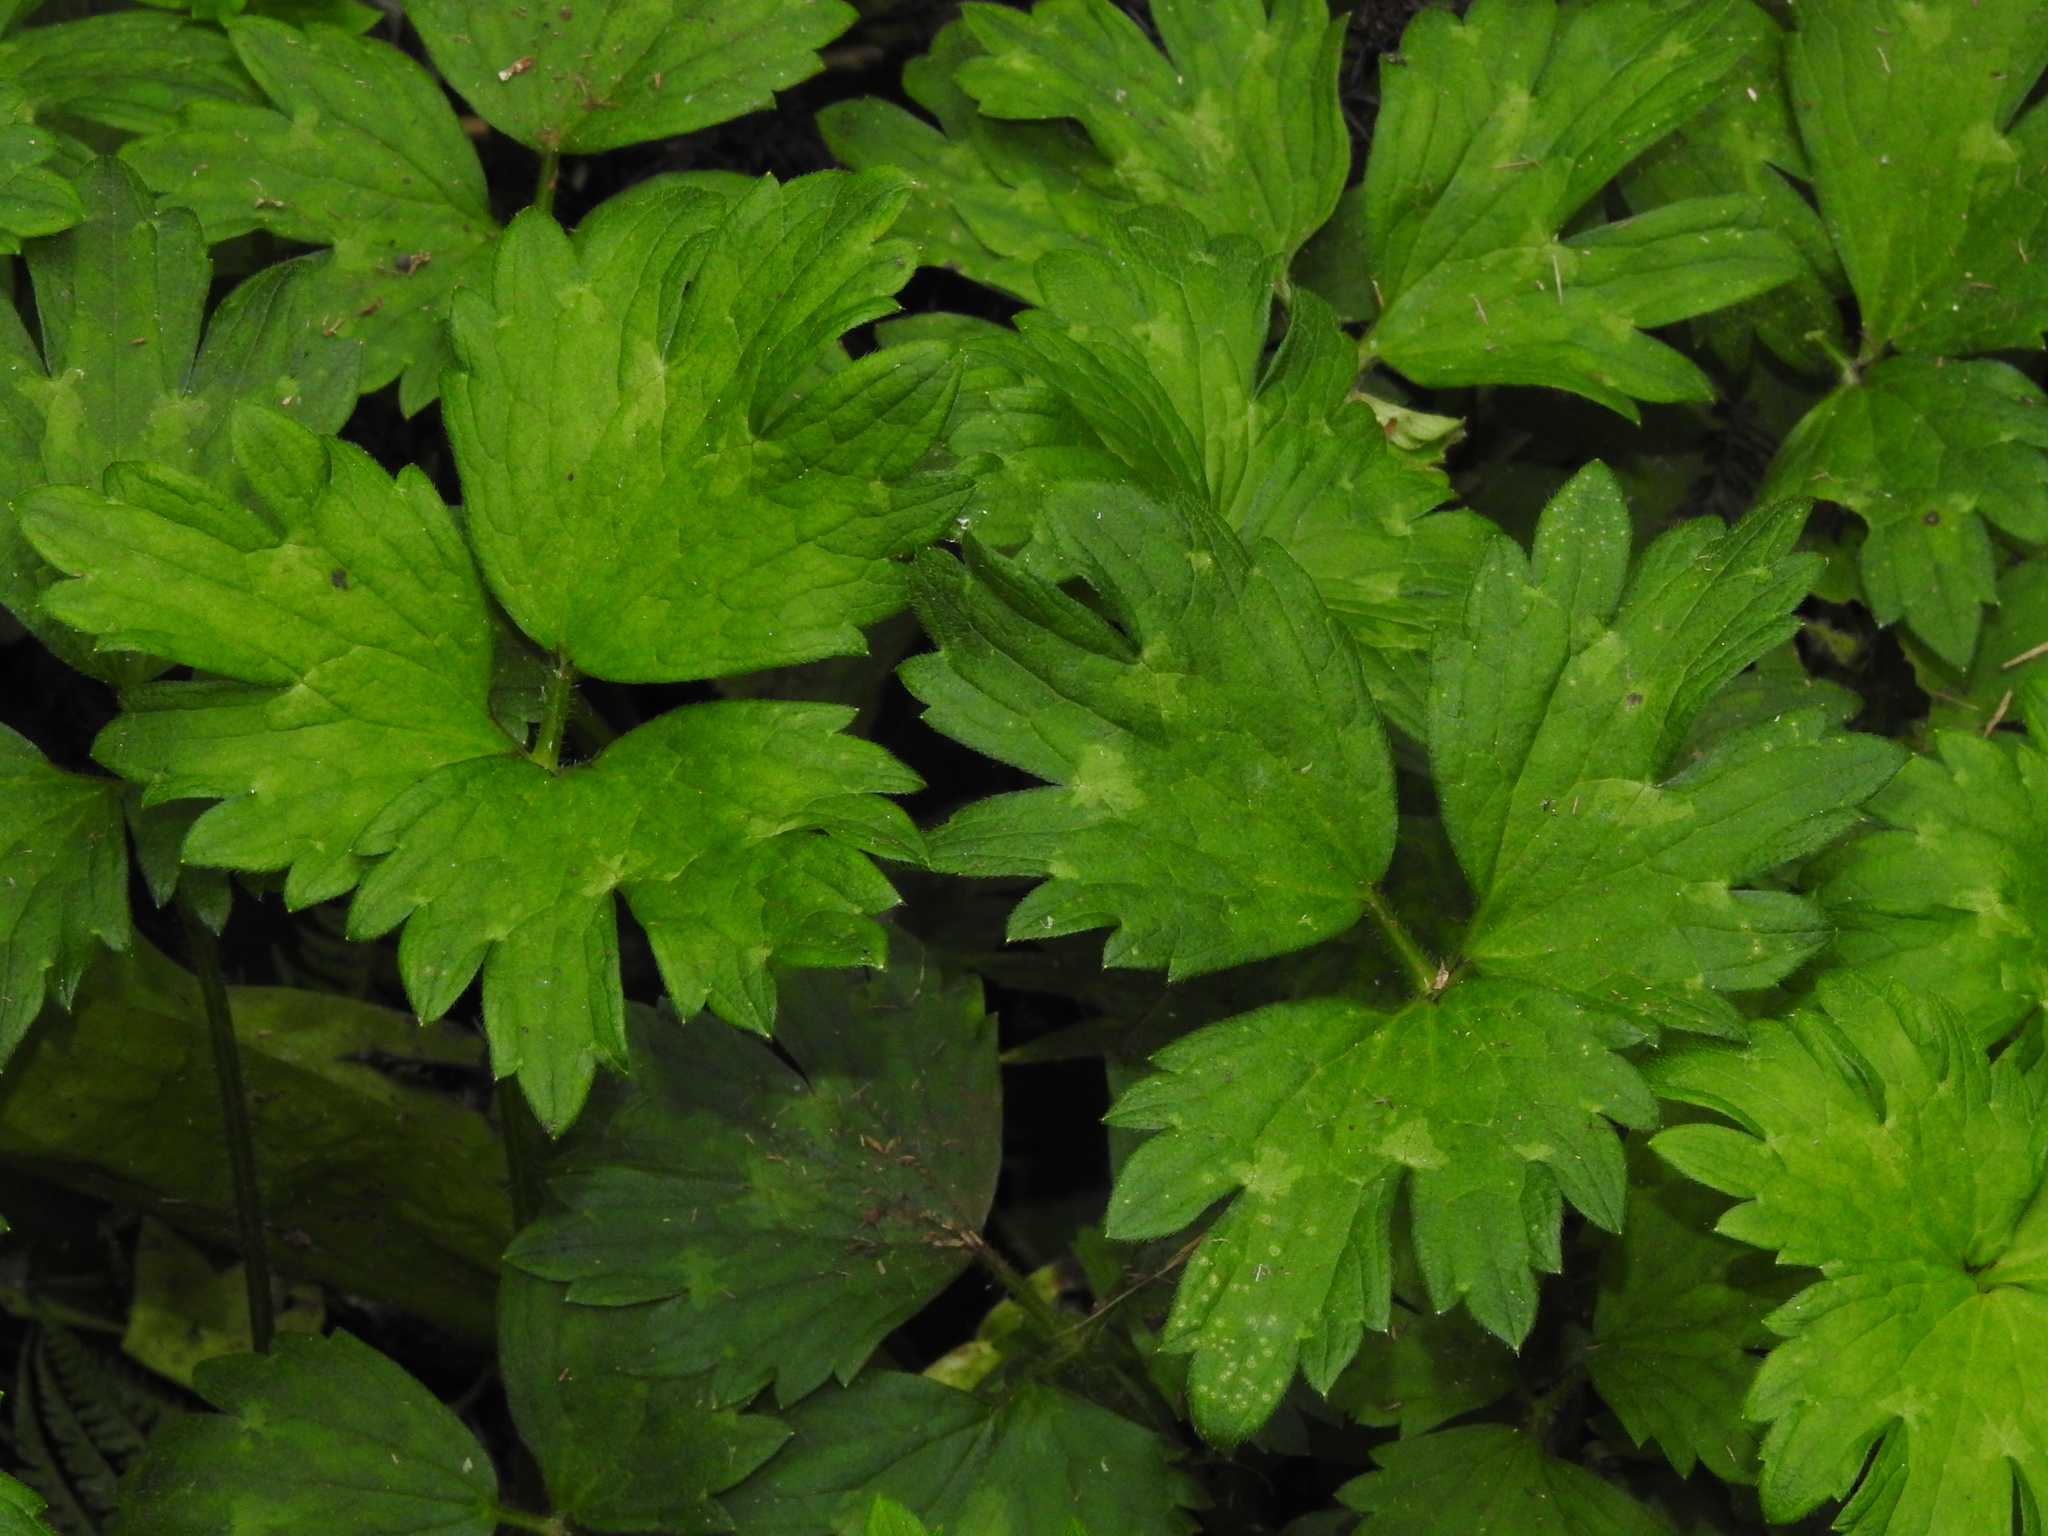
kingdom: Plantae
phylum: Tracheophyta
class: Magnoliopsida
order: Ranunculales
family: Ranunculaceae
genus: Ranunculus
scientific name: Ranunculus repens
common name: Creeping buttercup
